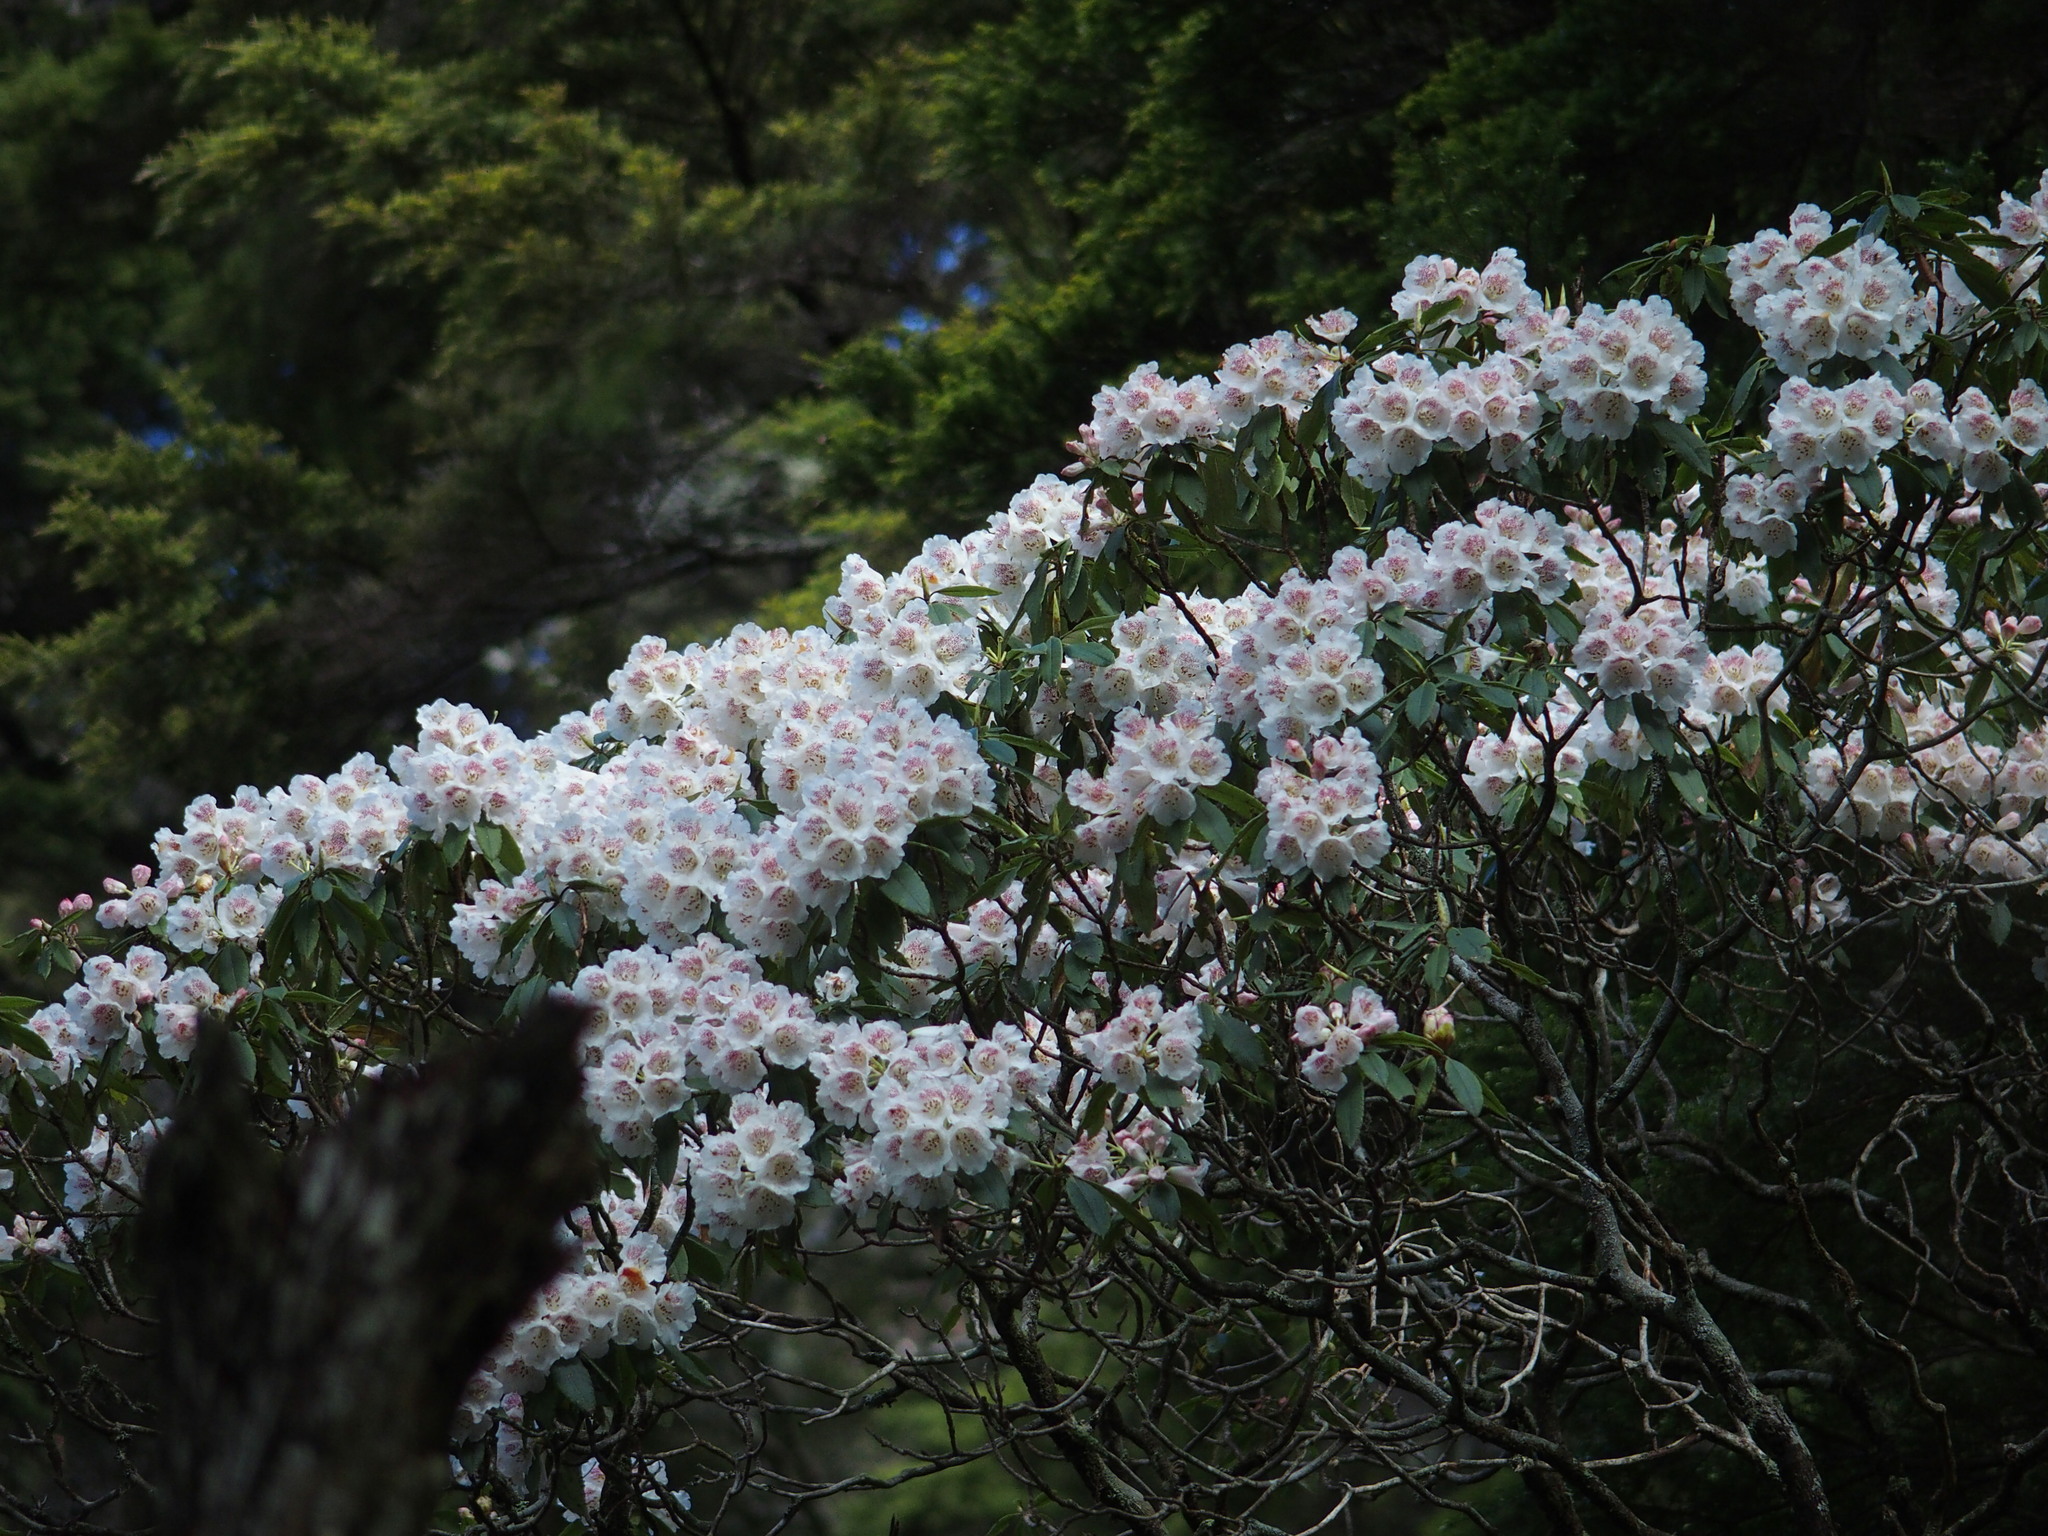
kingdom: Plantae
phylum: Tracheophyta
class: Magnoliopsida
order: Ericales
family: Ericaceae
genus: Rhododendron
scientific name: Rhododendron pseudochrysanthum
